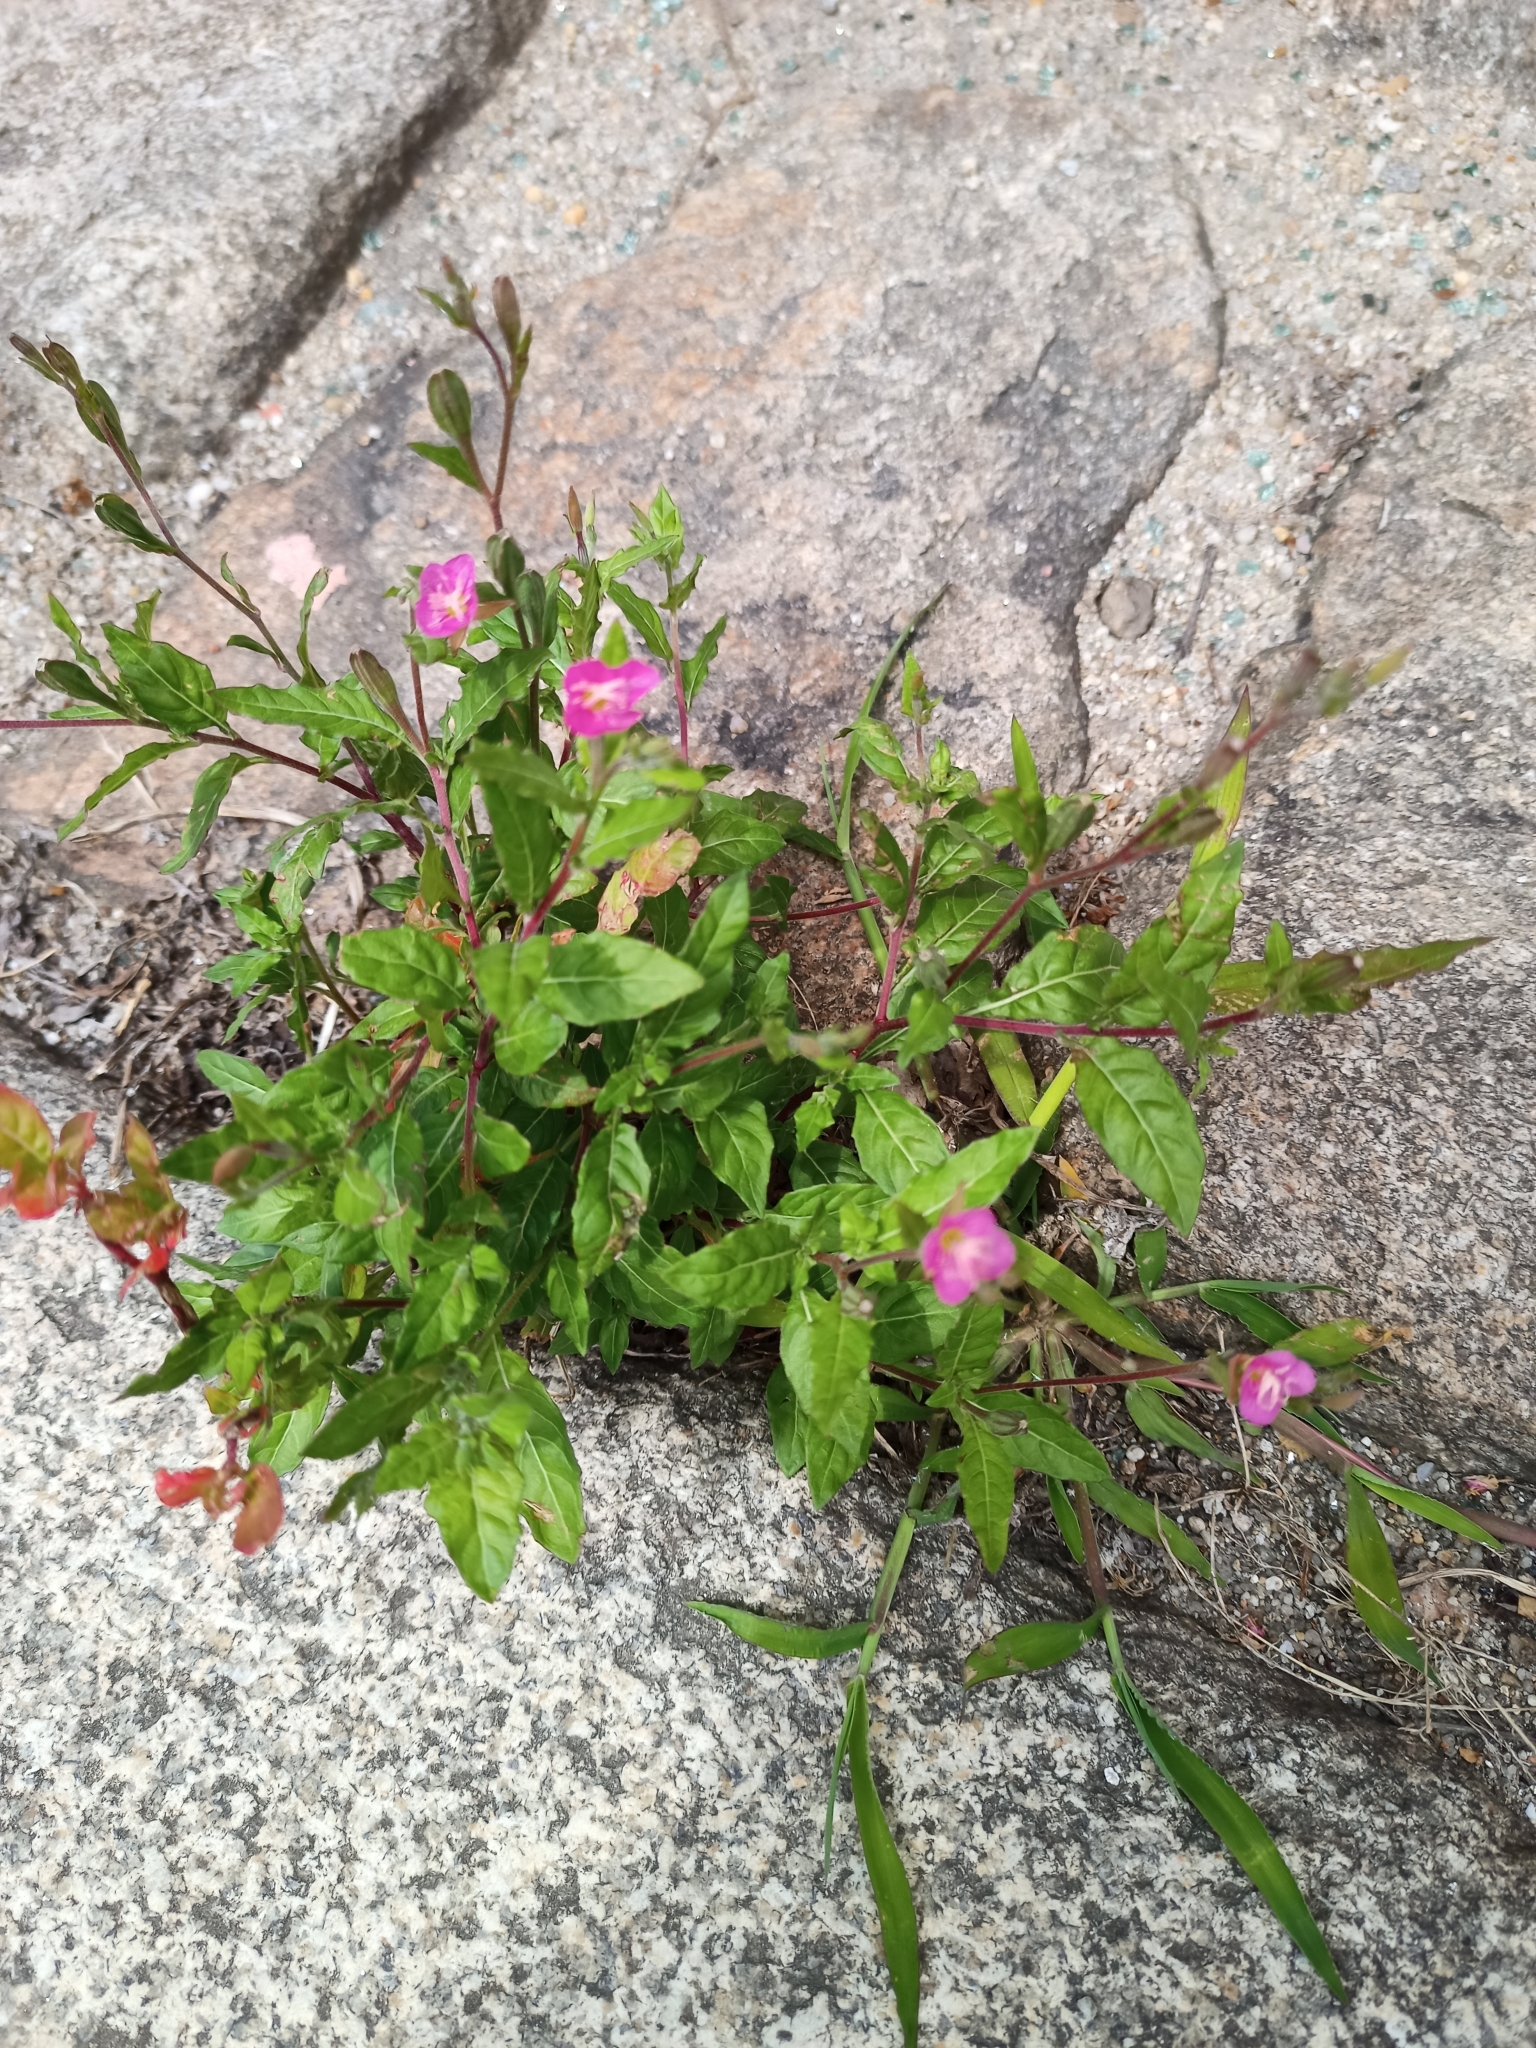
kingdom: Plantae
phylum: Tracheophyta
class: Magnoliopsida
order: Myrtales
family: Onagraceae
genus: Oenothera
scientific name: Oenothera rosea
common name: Rosy evening-primrose
